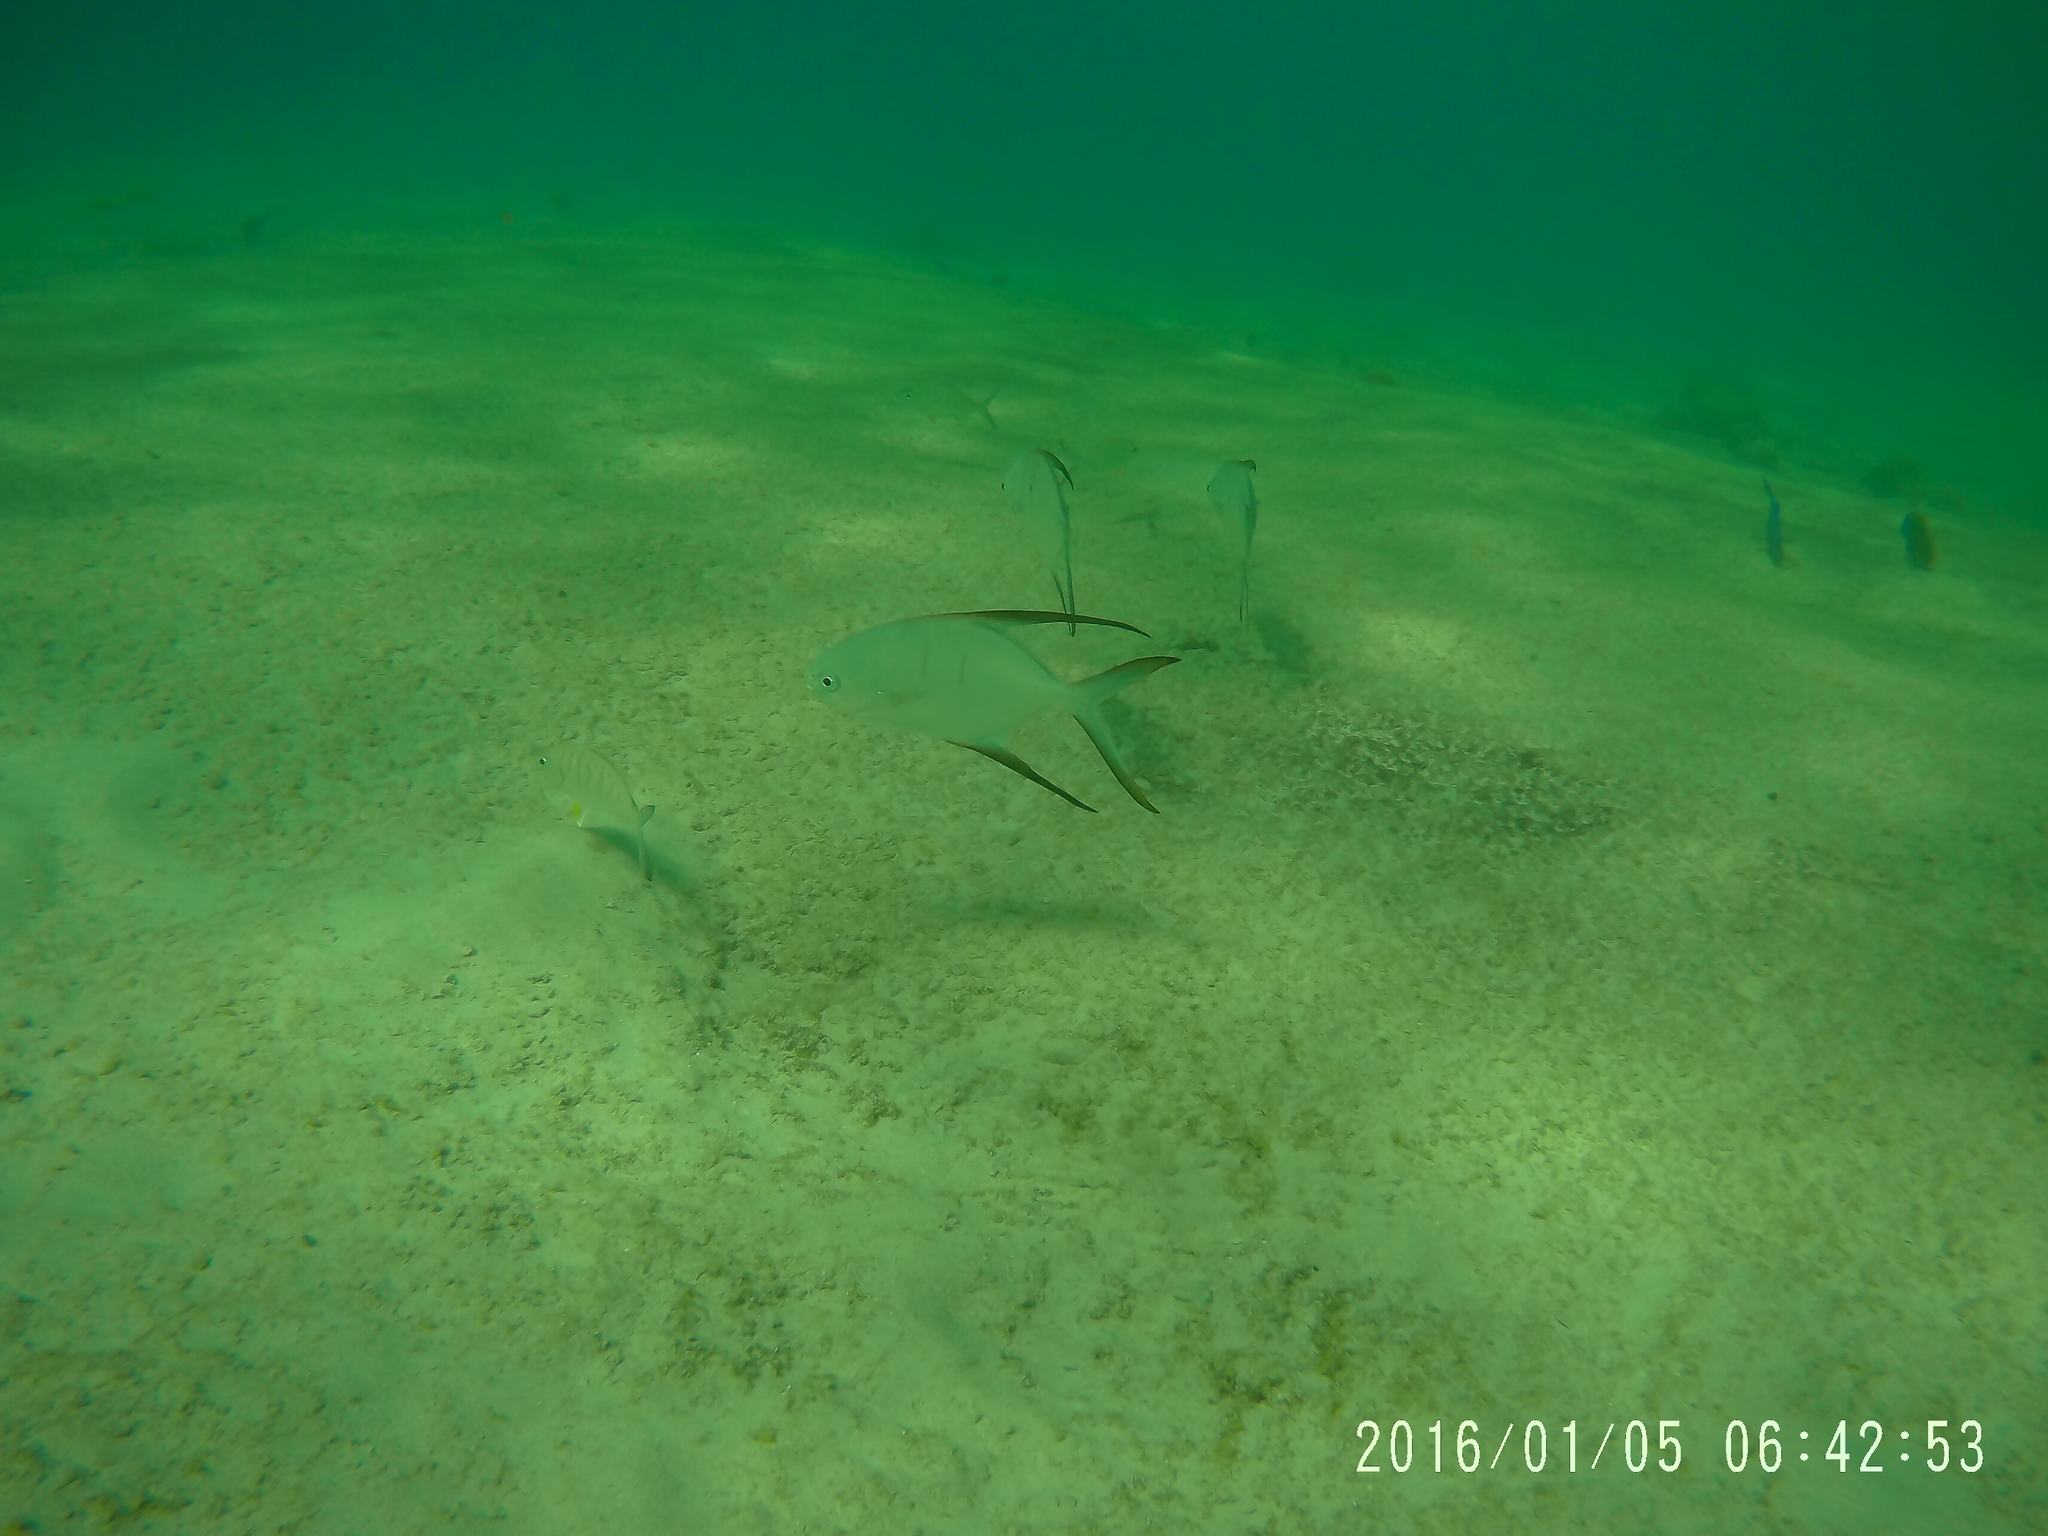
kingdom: Animalia
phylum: Chordata
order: Perciformes
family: Carangidae
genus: Trachinotus
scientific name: Trachinotus goodei
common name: Palometa
